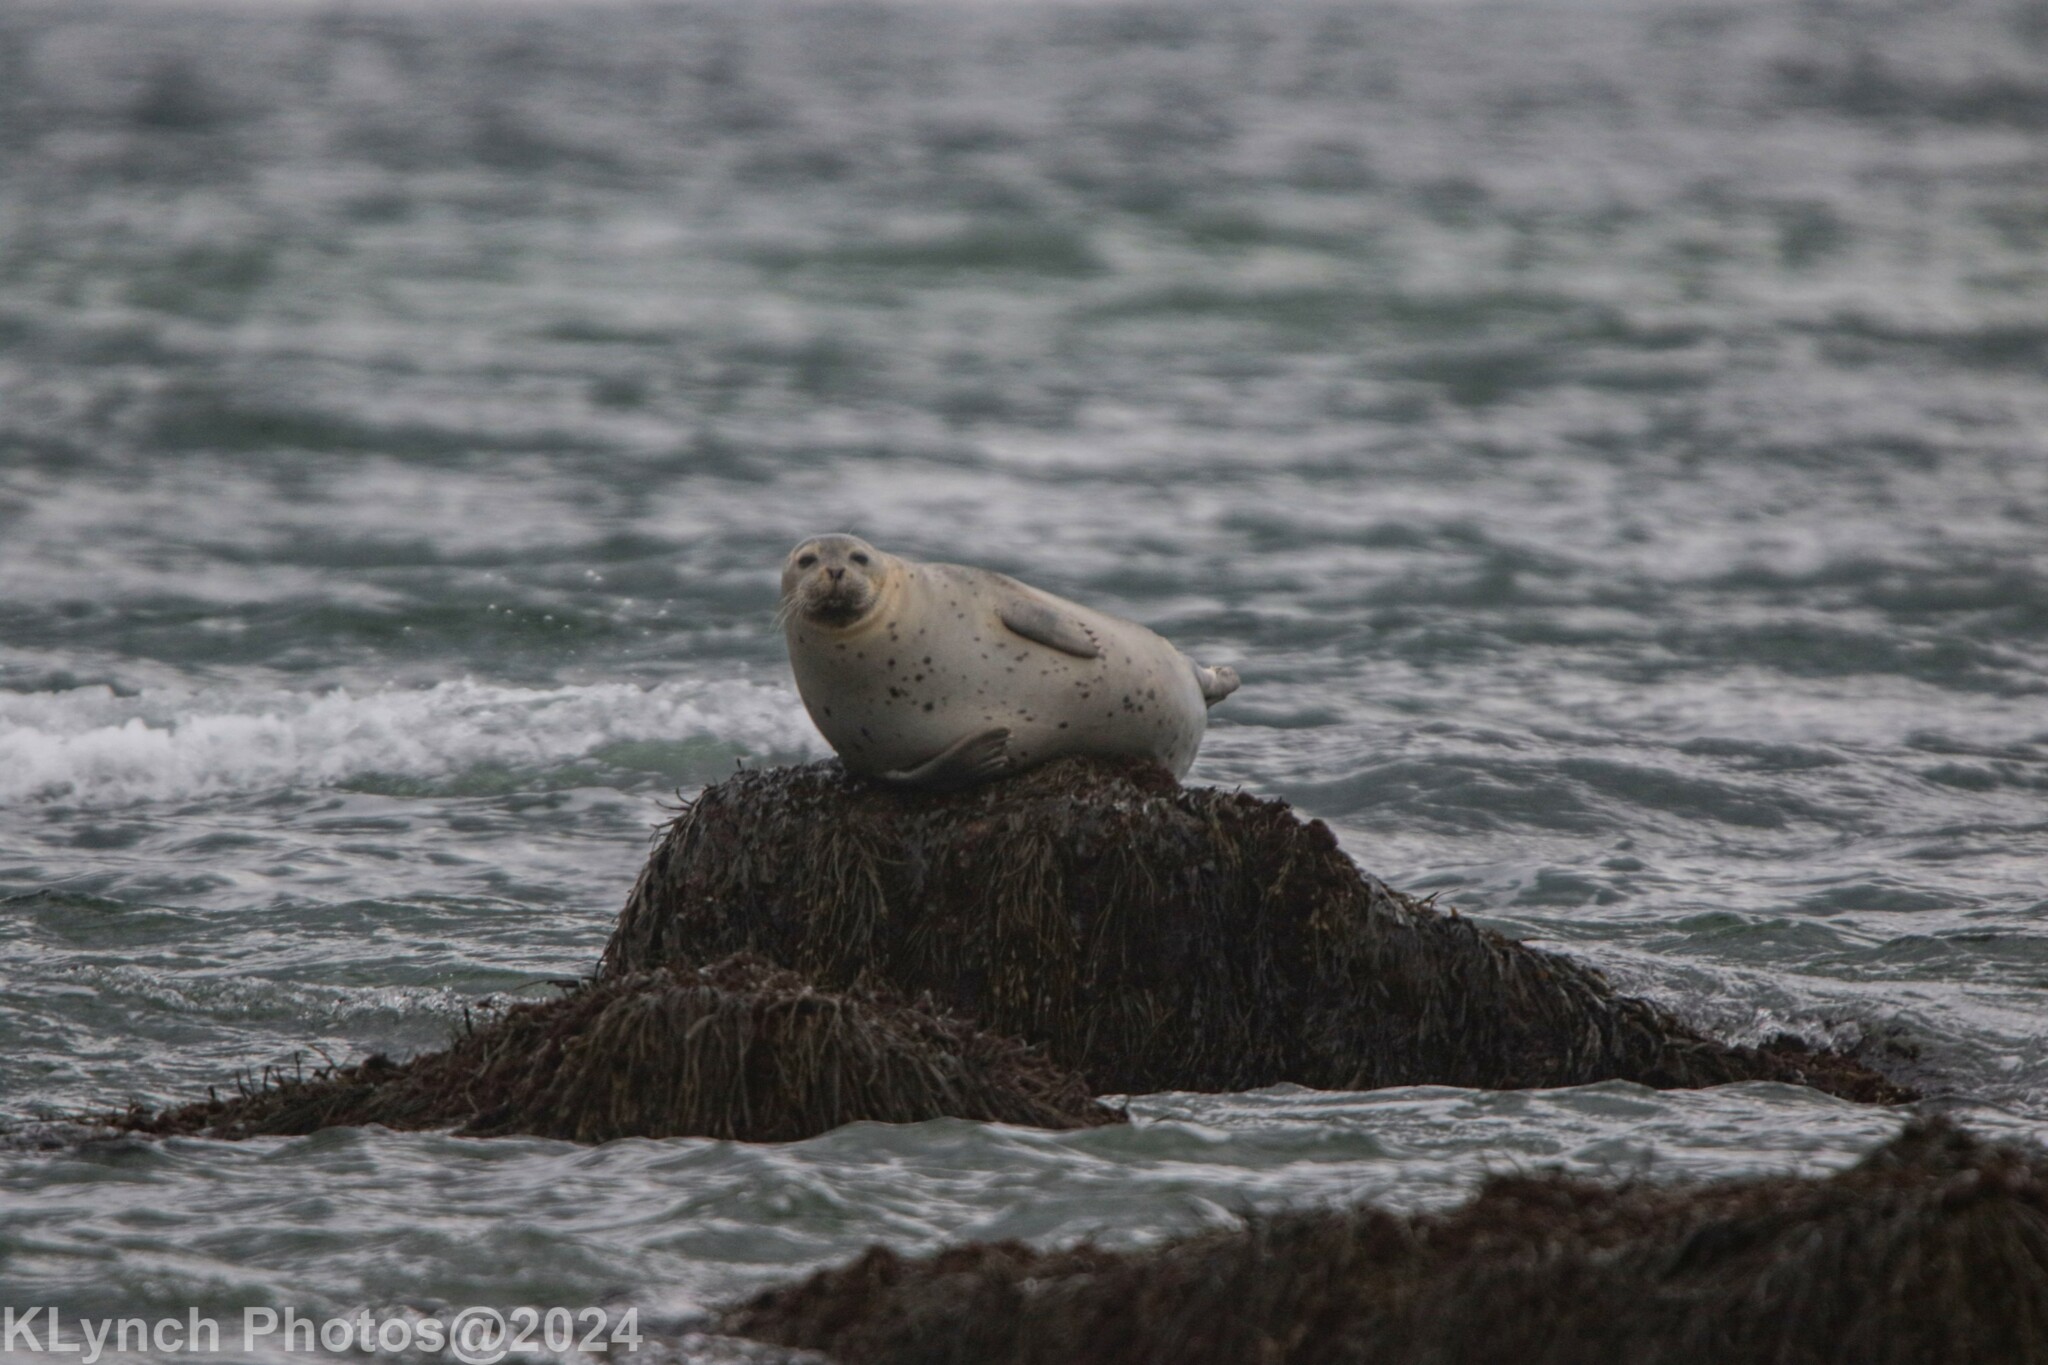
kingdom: Animalia
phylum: Chordata
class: Mammalia
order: Carnivora
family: Phocidae
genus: Phoca
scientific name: Phoca vitulina
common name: Harbor seal
